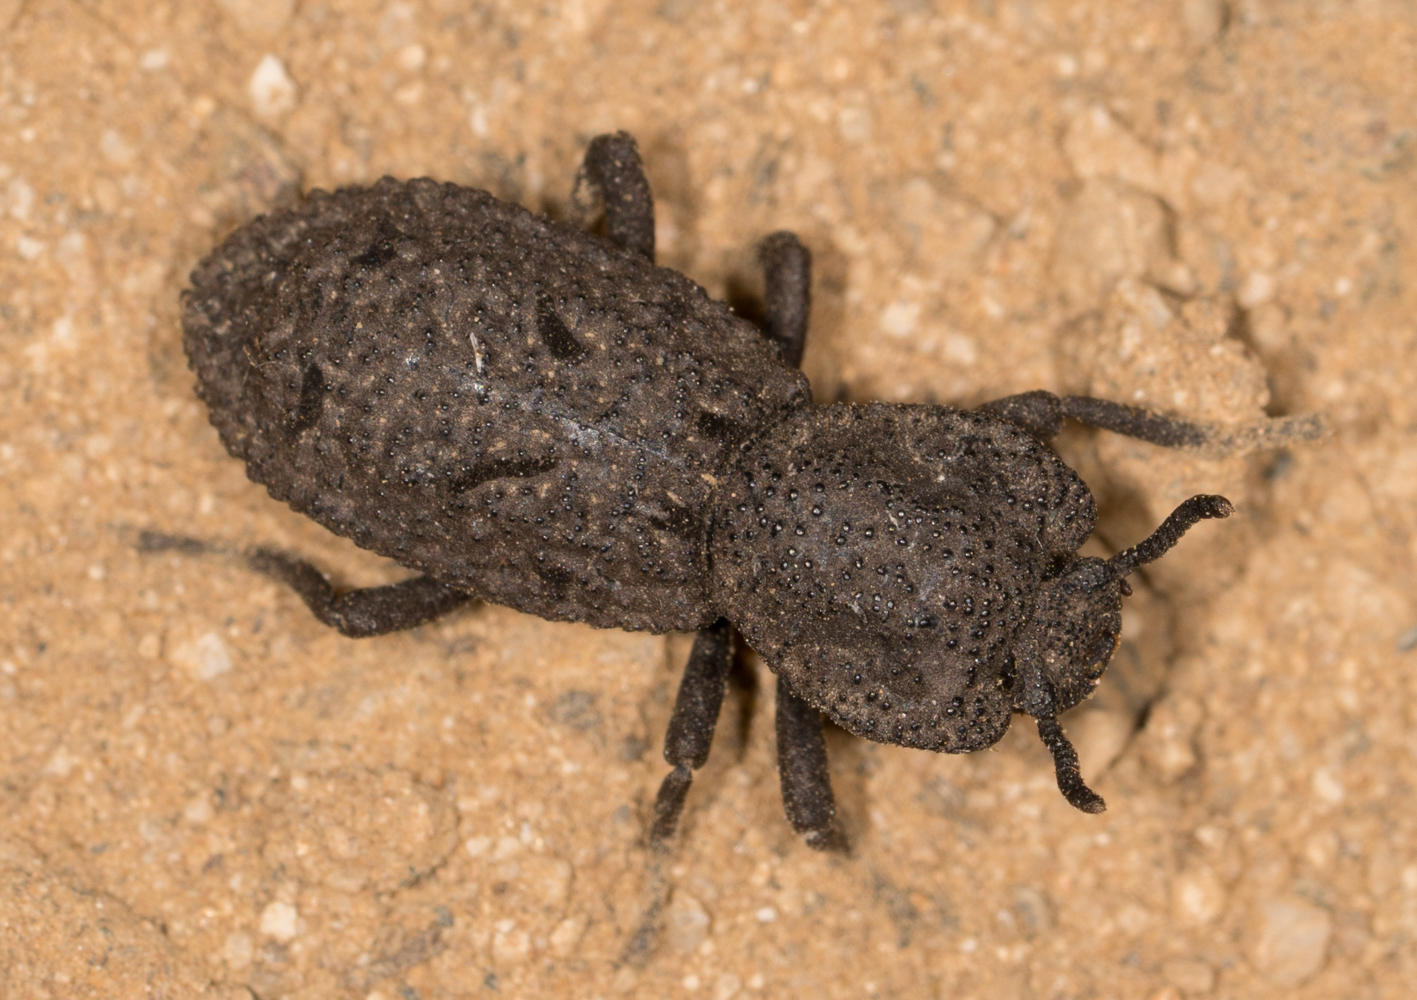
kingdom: Animalia
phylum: Arthropoda
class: Insecta
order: Coleoptera
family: Zopheridae
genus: Phloeodes
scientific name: Phloeodes diabolicus
